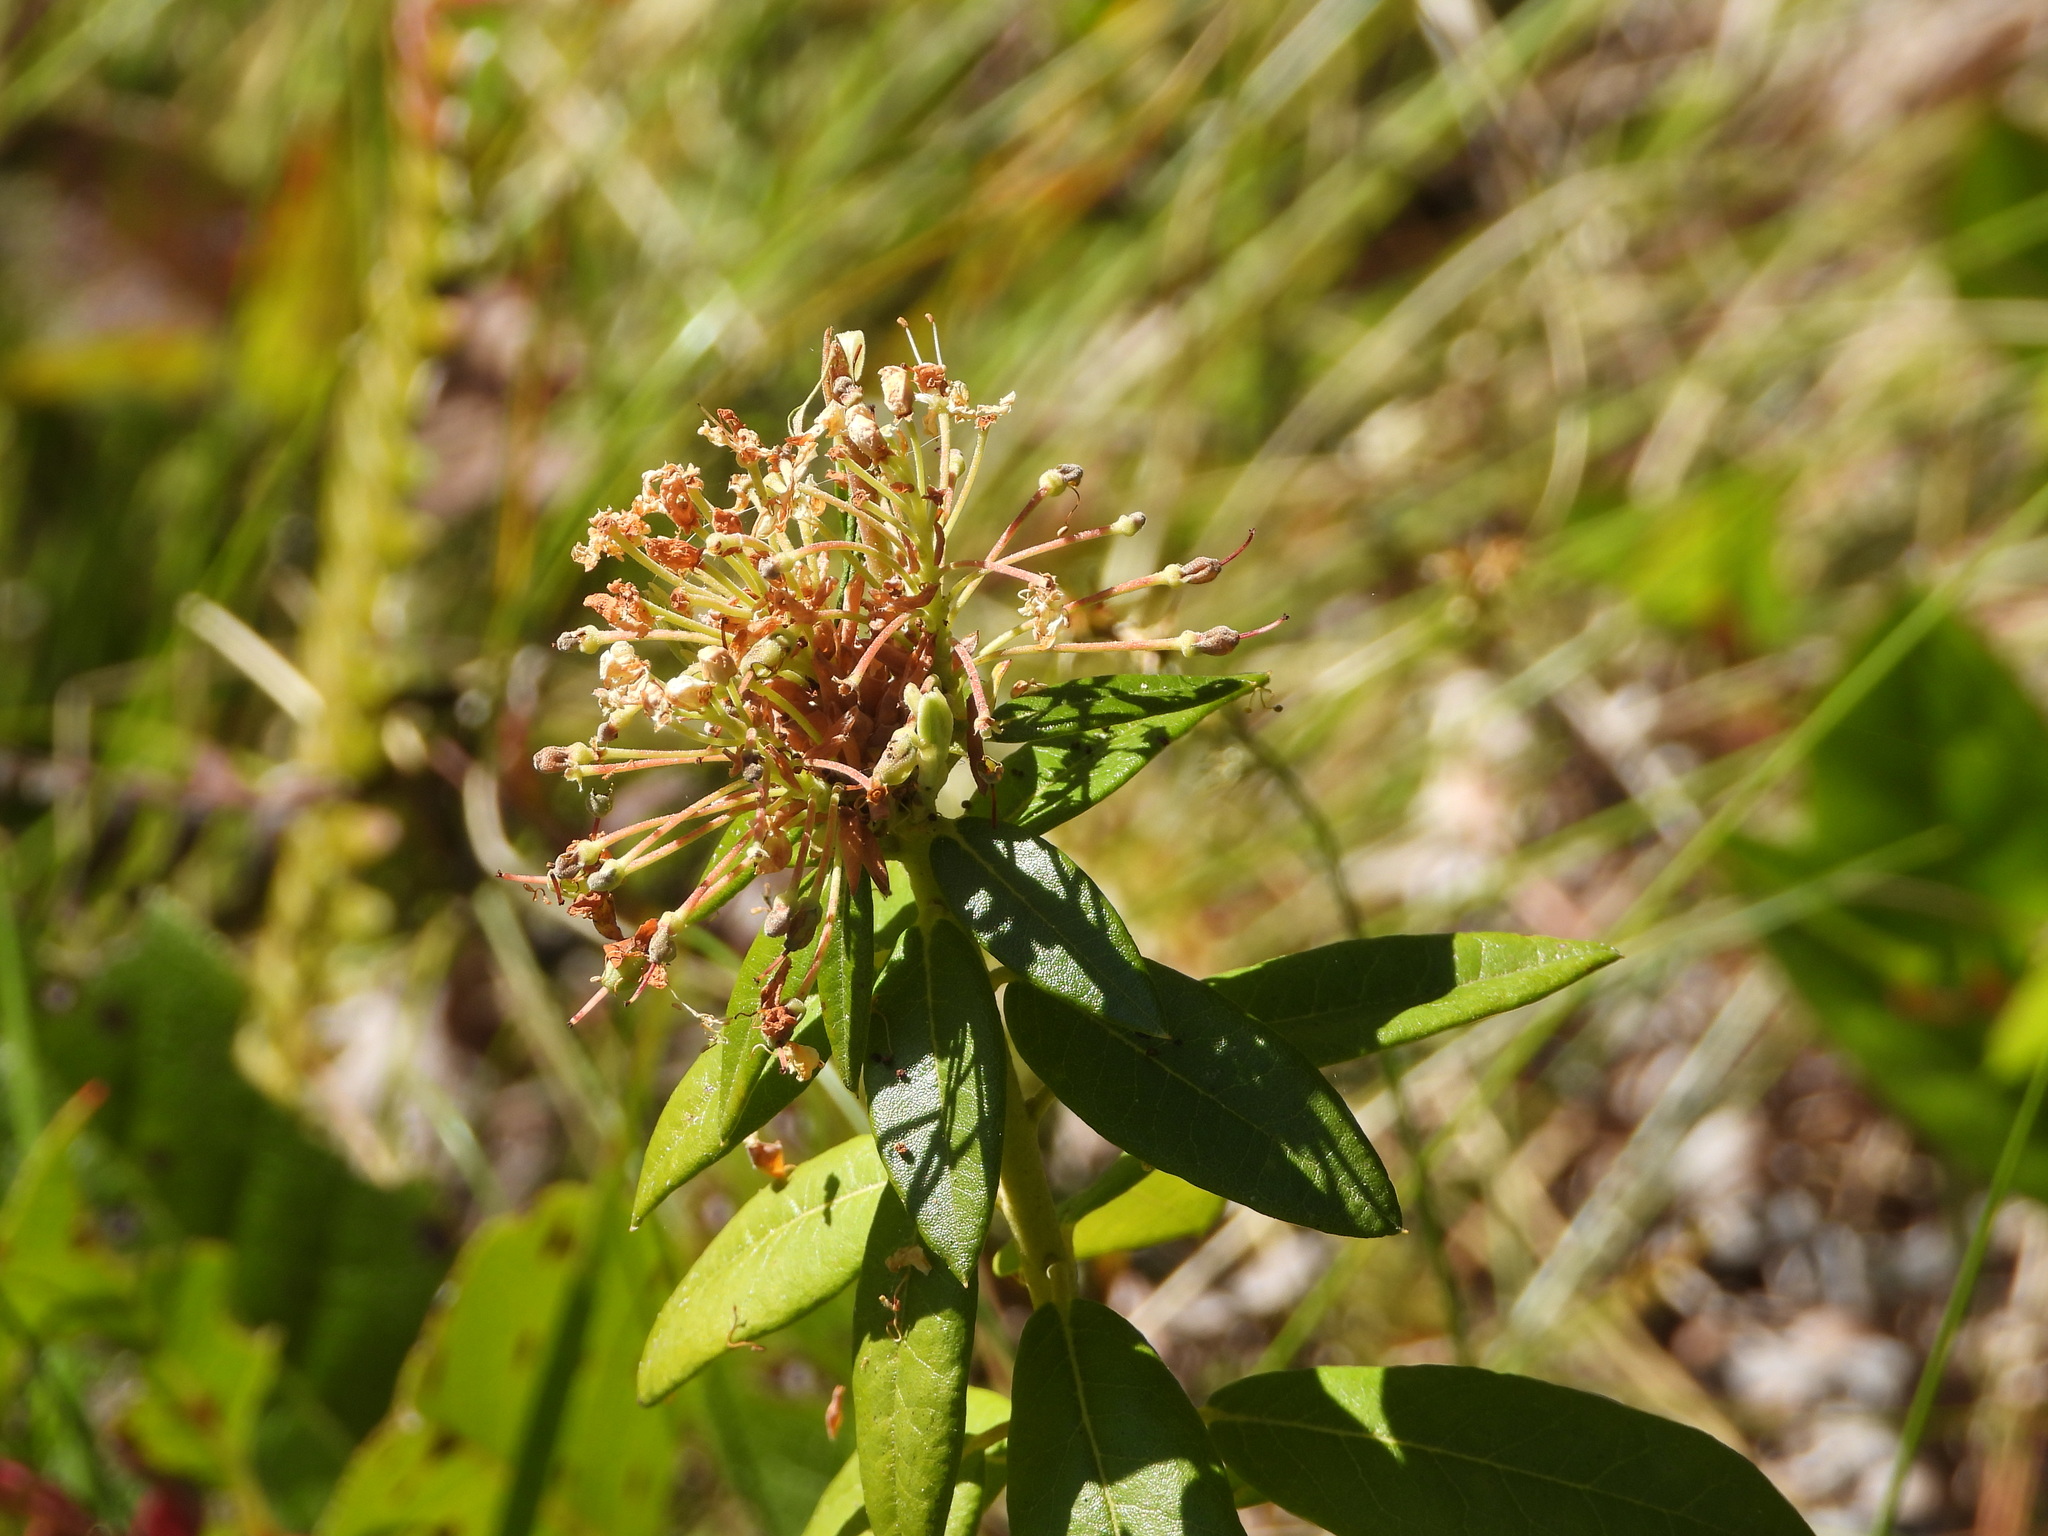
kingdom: Plantae
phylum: Tracheophyta
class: Magnoliopsida
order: Ericales
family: Ericaceae
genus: Rhododendron
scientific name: Rhododendron columbianum
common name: Western labrador tea
